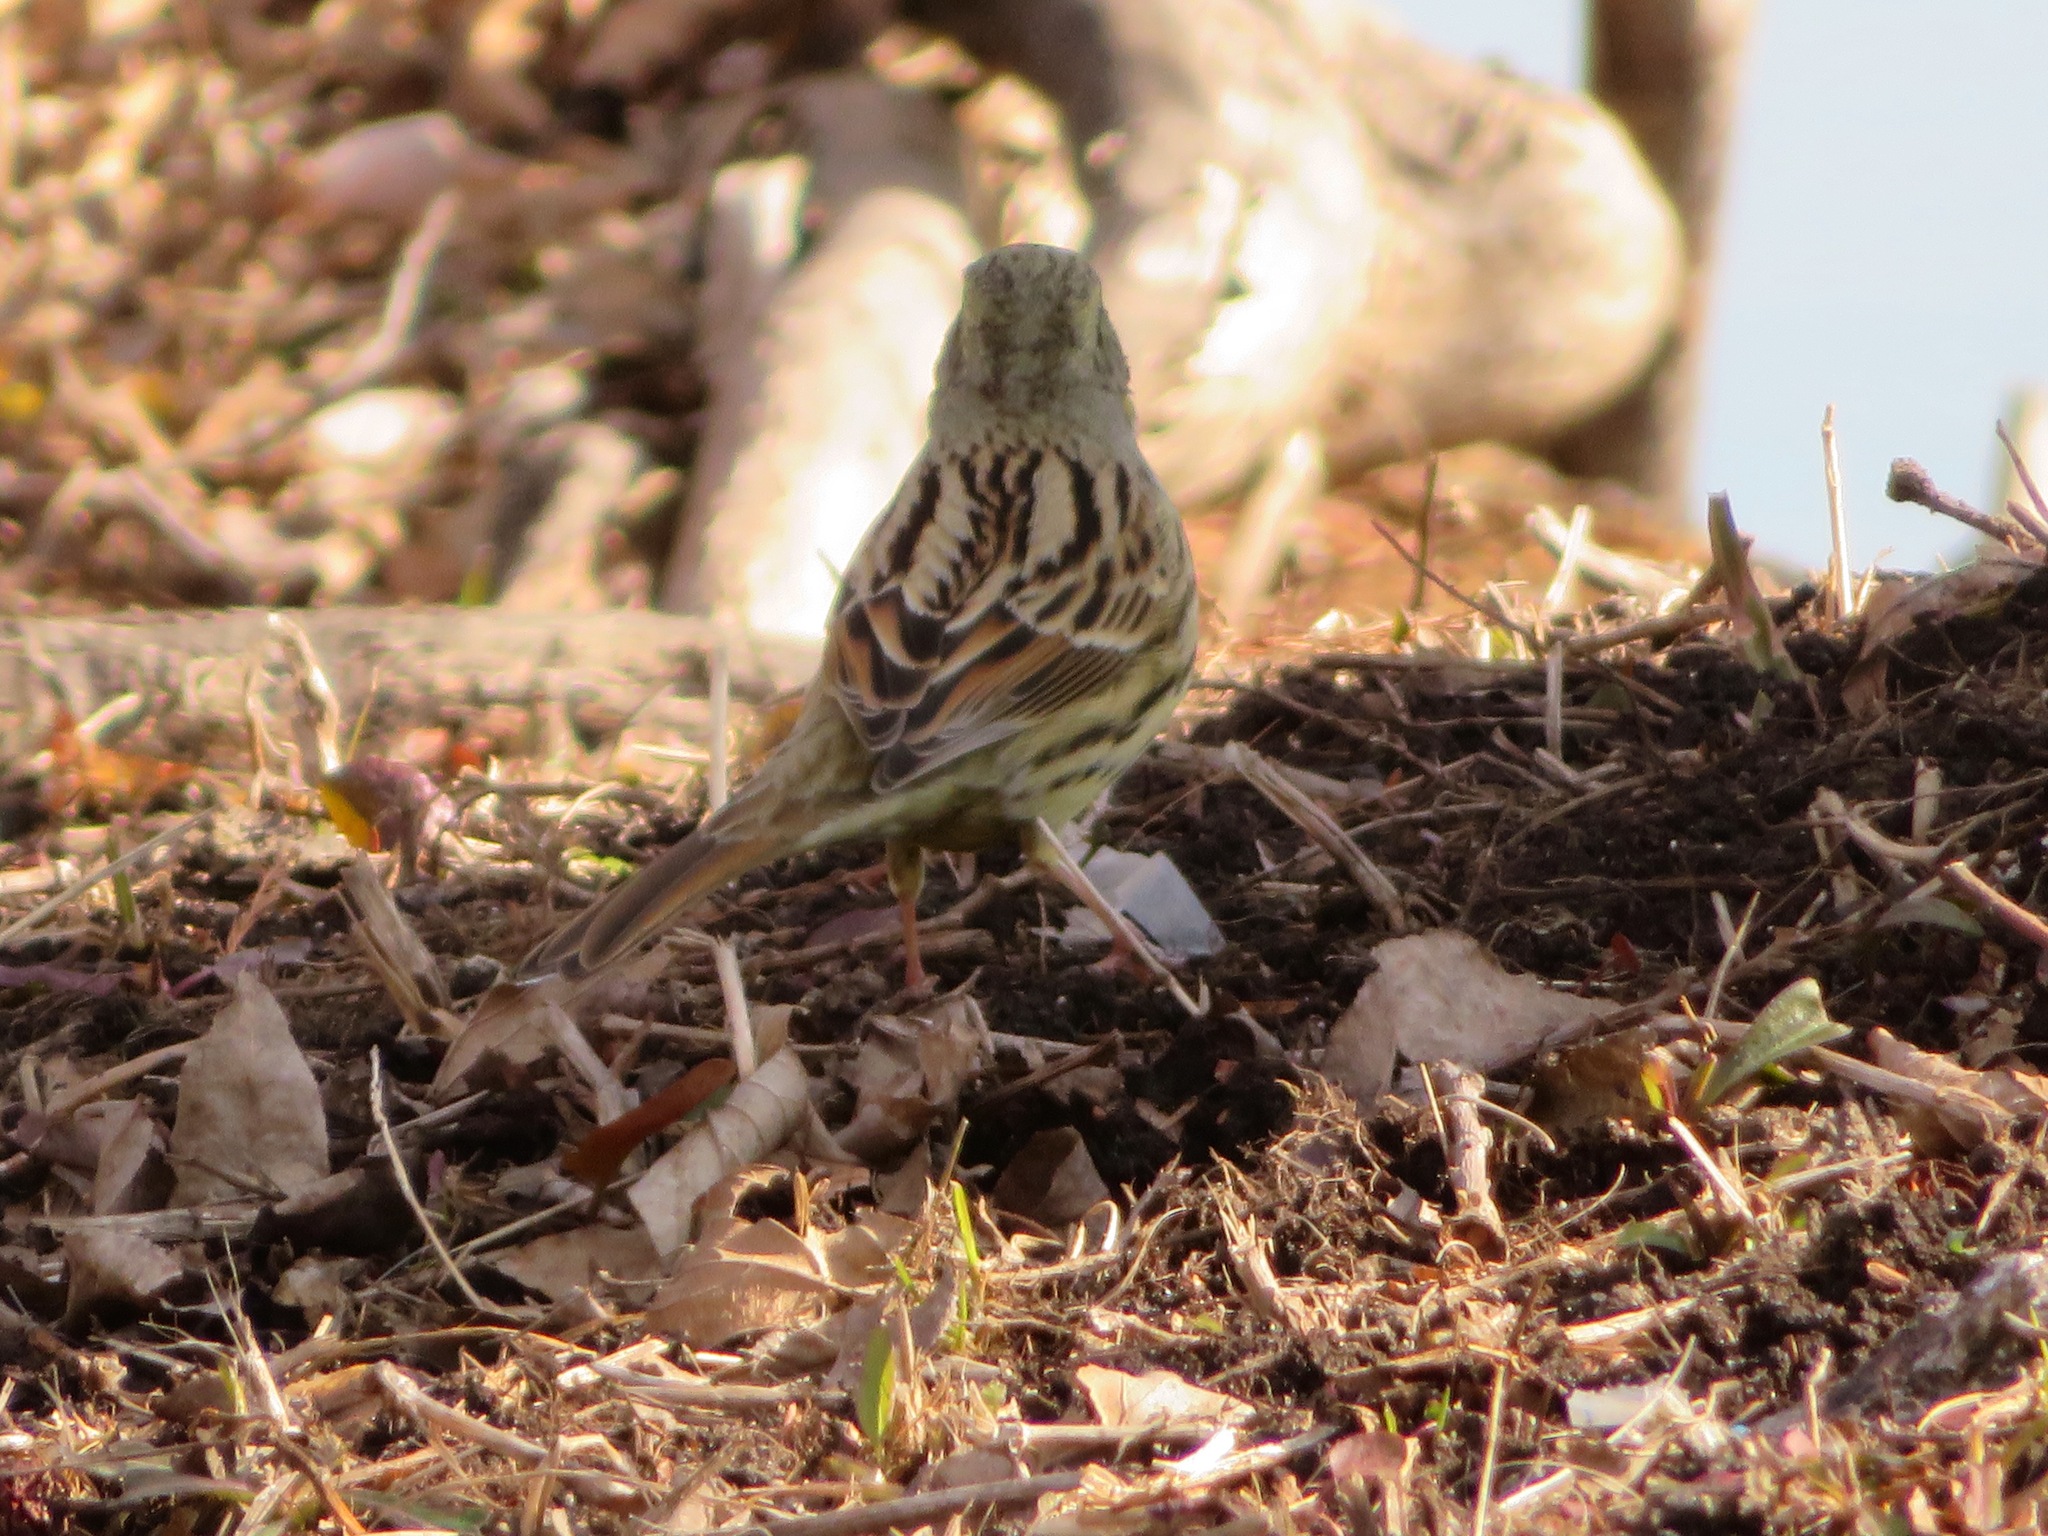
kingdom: Animalia
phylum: Chordata
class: Aves
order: Passeriformes
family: Emberizidae
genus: Emberiza
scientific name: Emberiza personata
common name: Masked bunting
